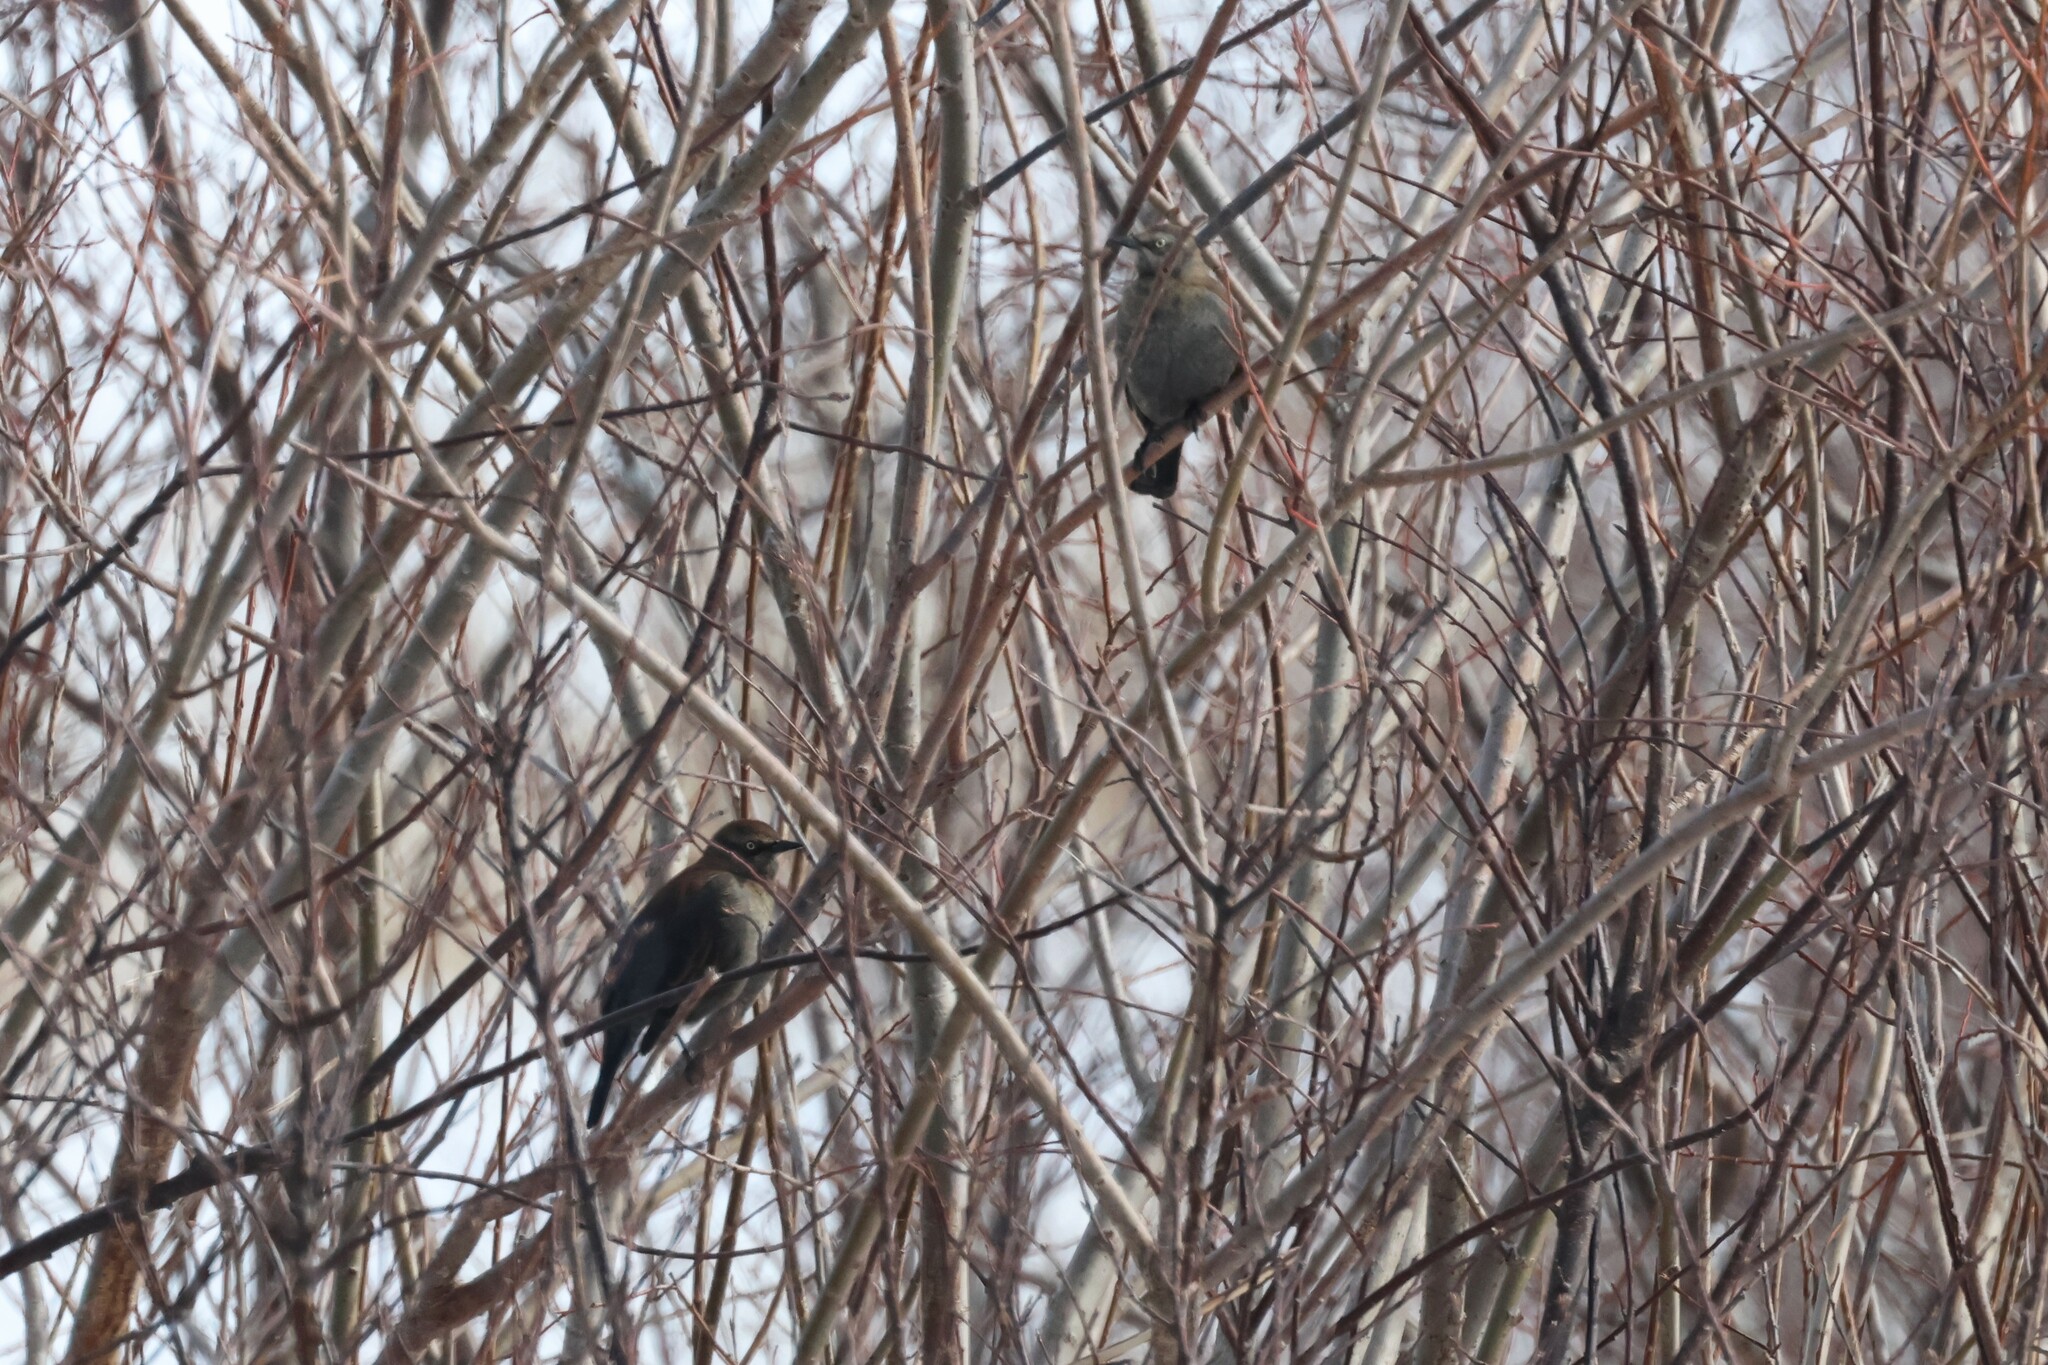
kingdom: Animalia
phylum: Chordata
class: Aves
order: Passeriformes
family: Icteridae
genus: Euphagus
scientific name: Euphagus carolinus
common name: Rusty blackbird
